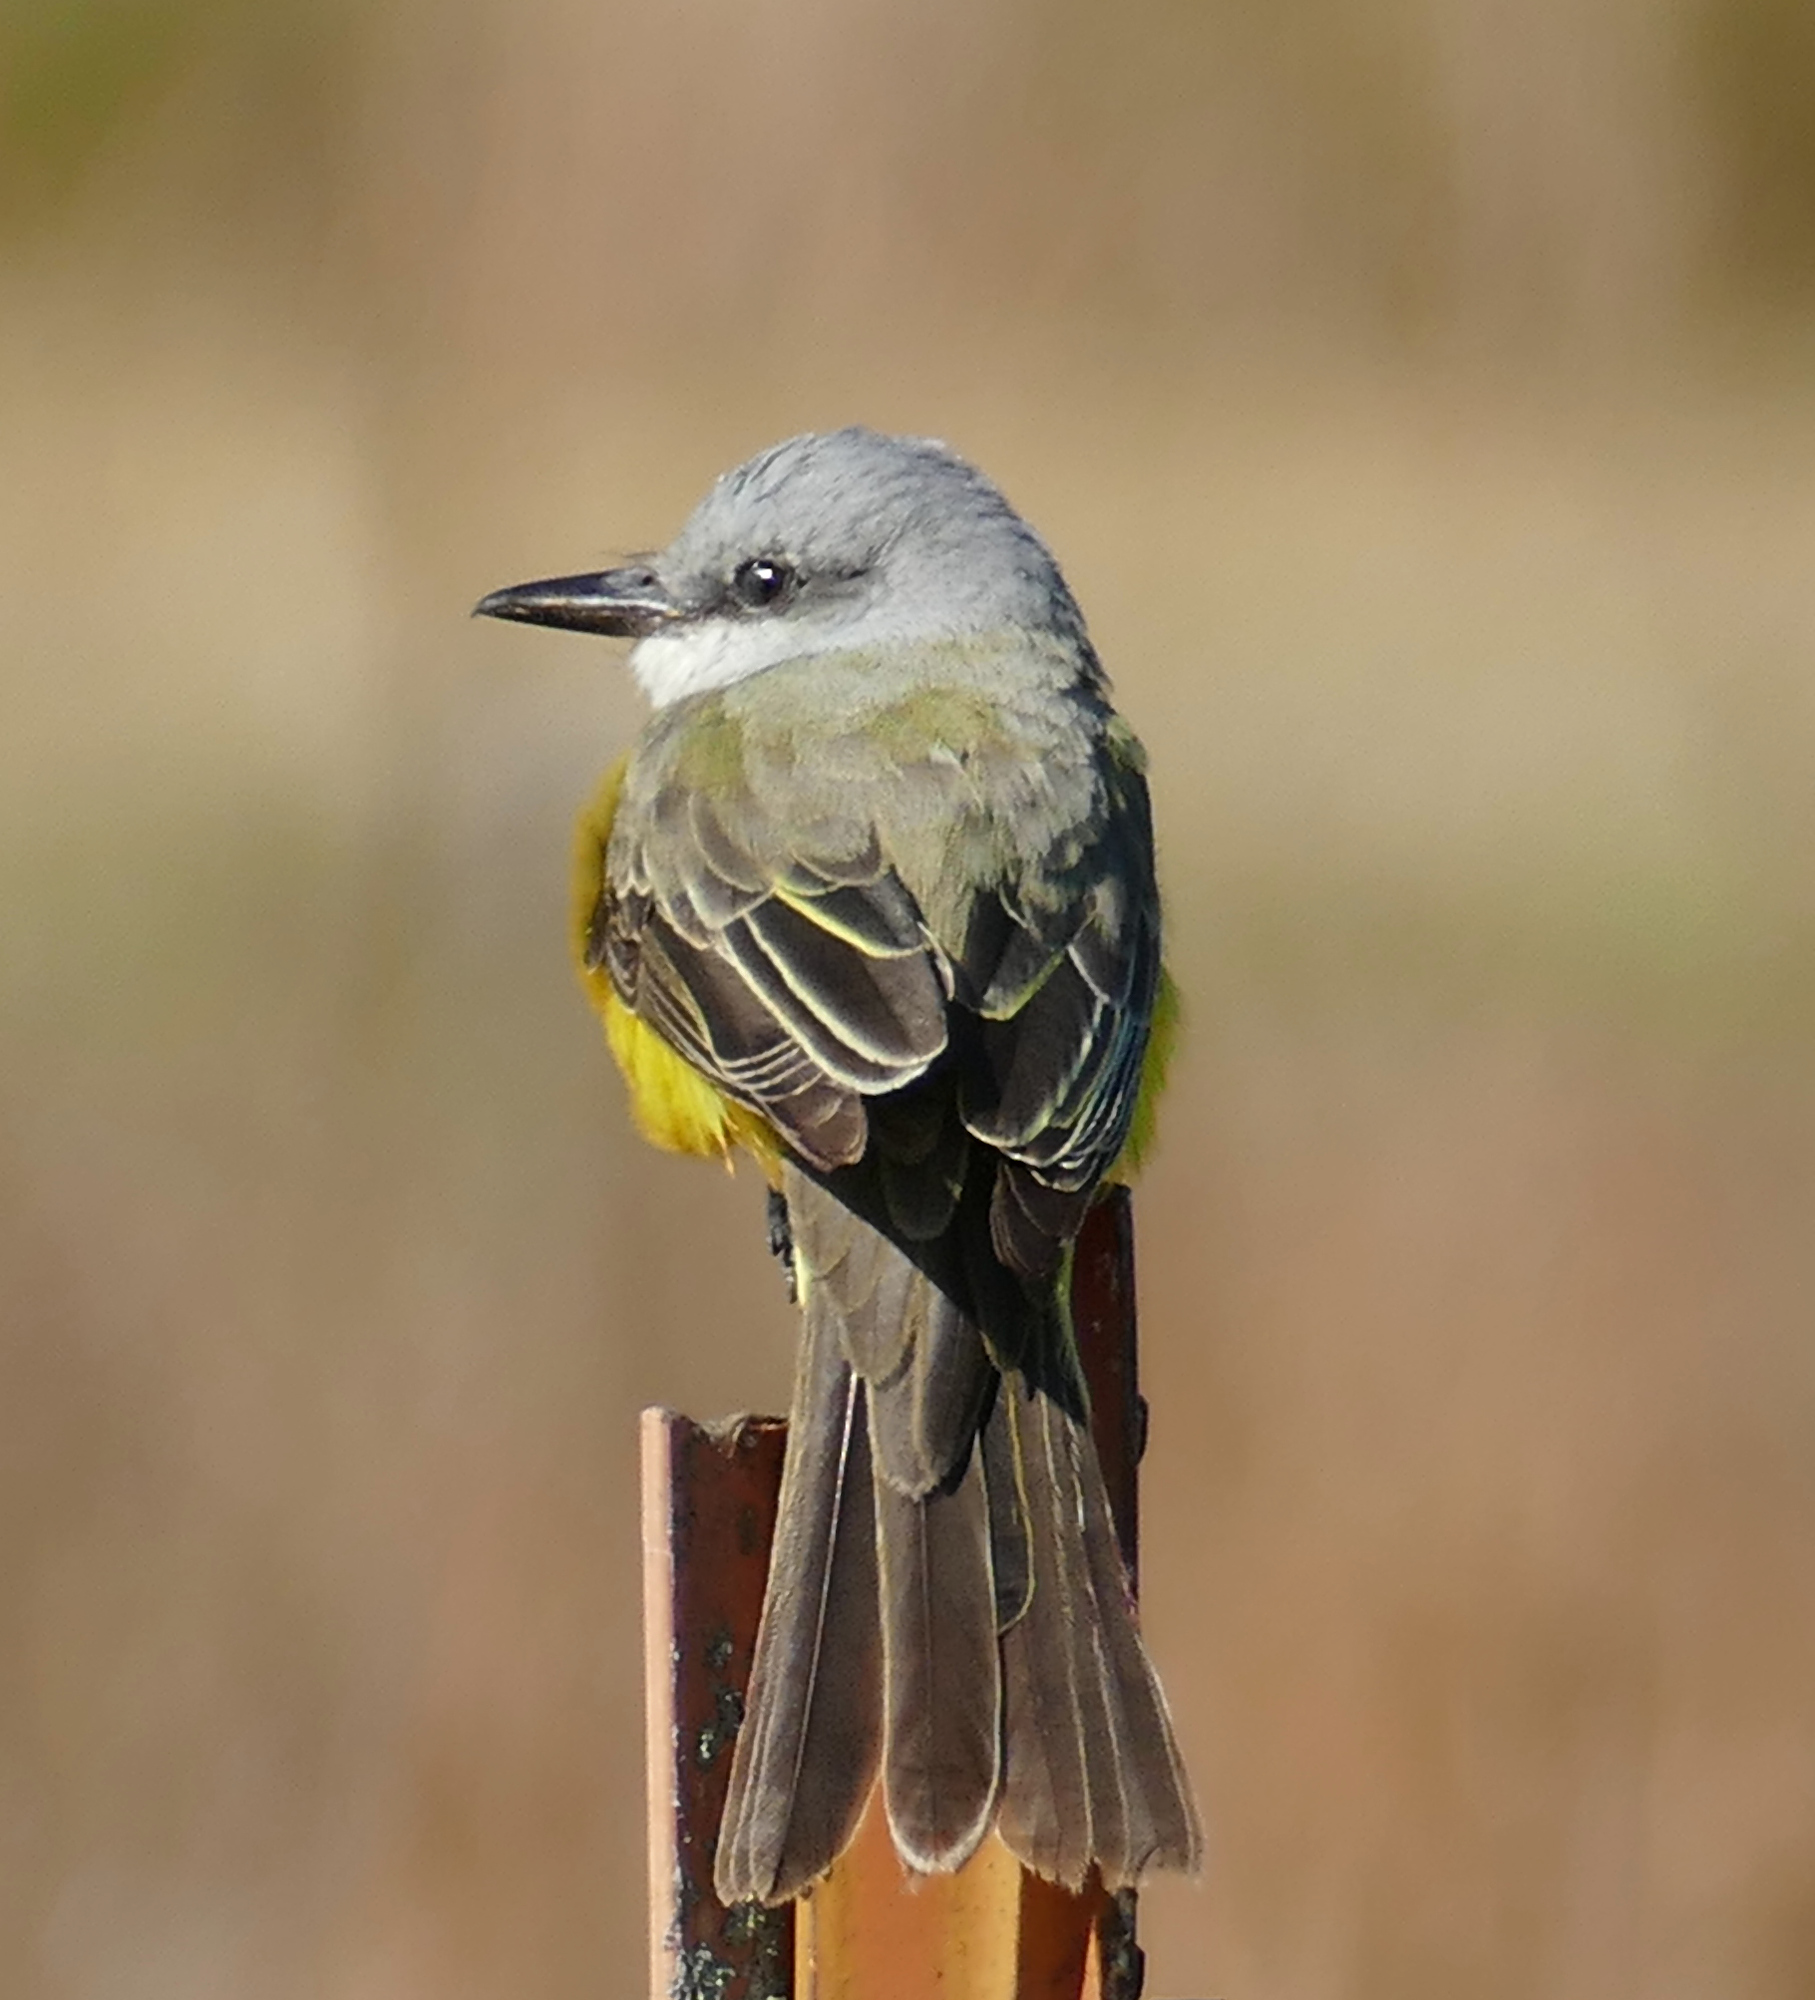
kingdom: Animalia
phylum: Chordata
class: Aves
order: Passeriformes
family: Tyrannidae
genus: Tyrannus
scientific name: Tyrannus melancholicus
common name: Tropical kingbird
